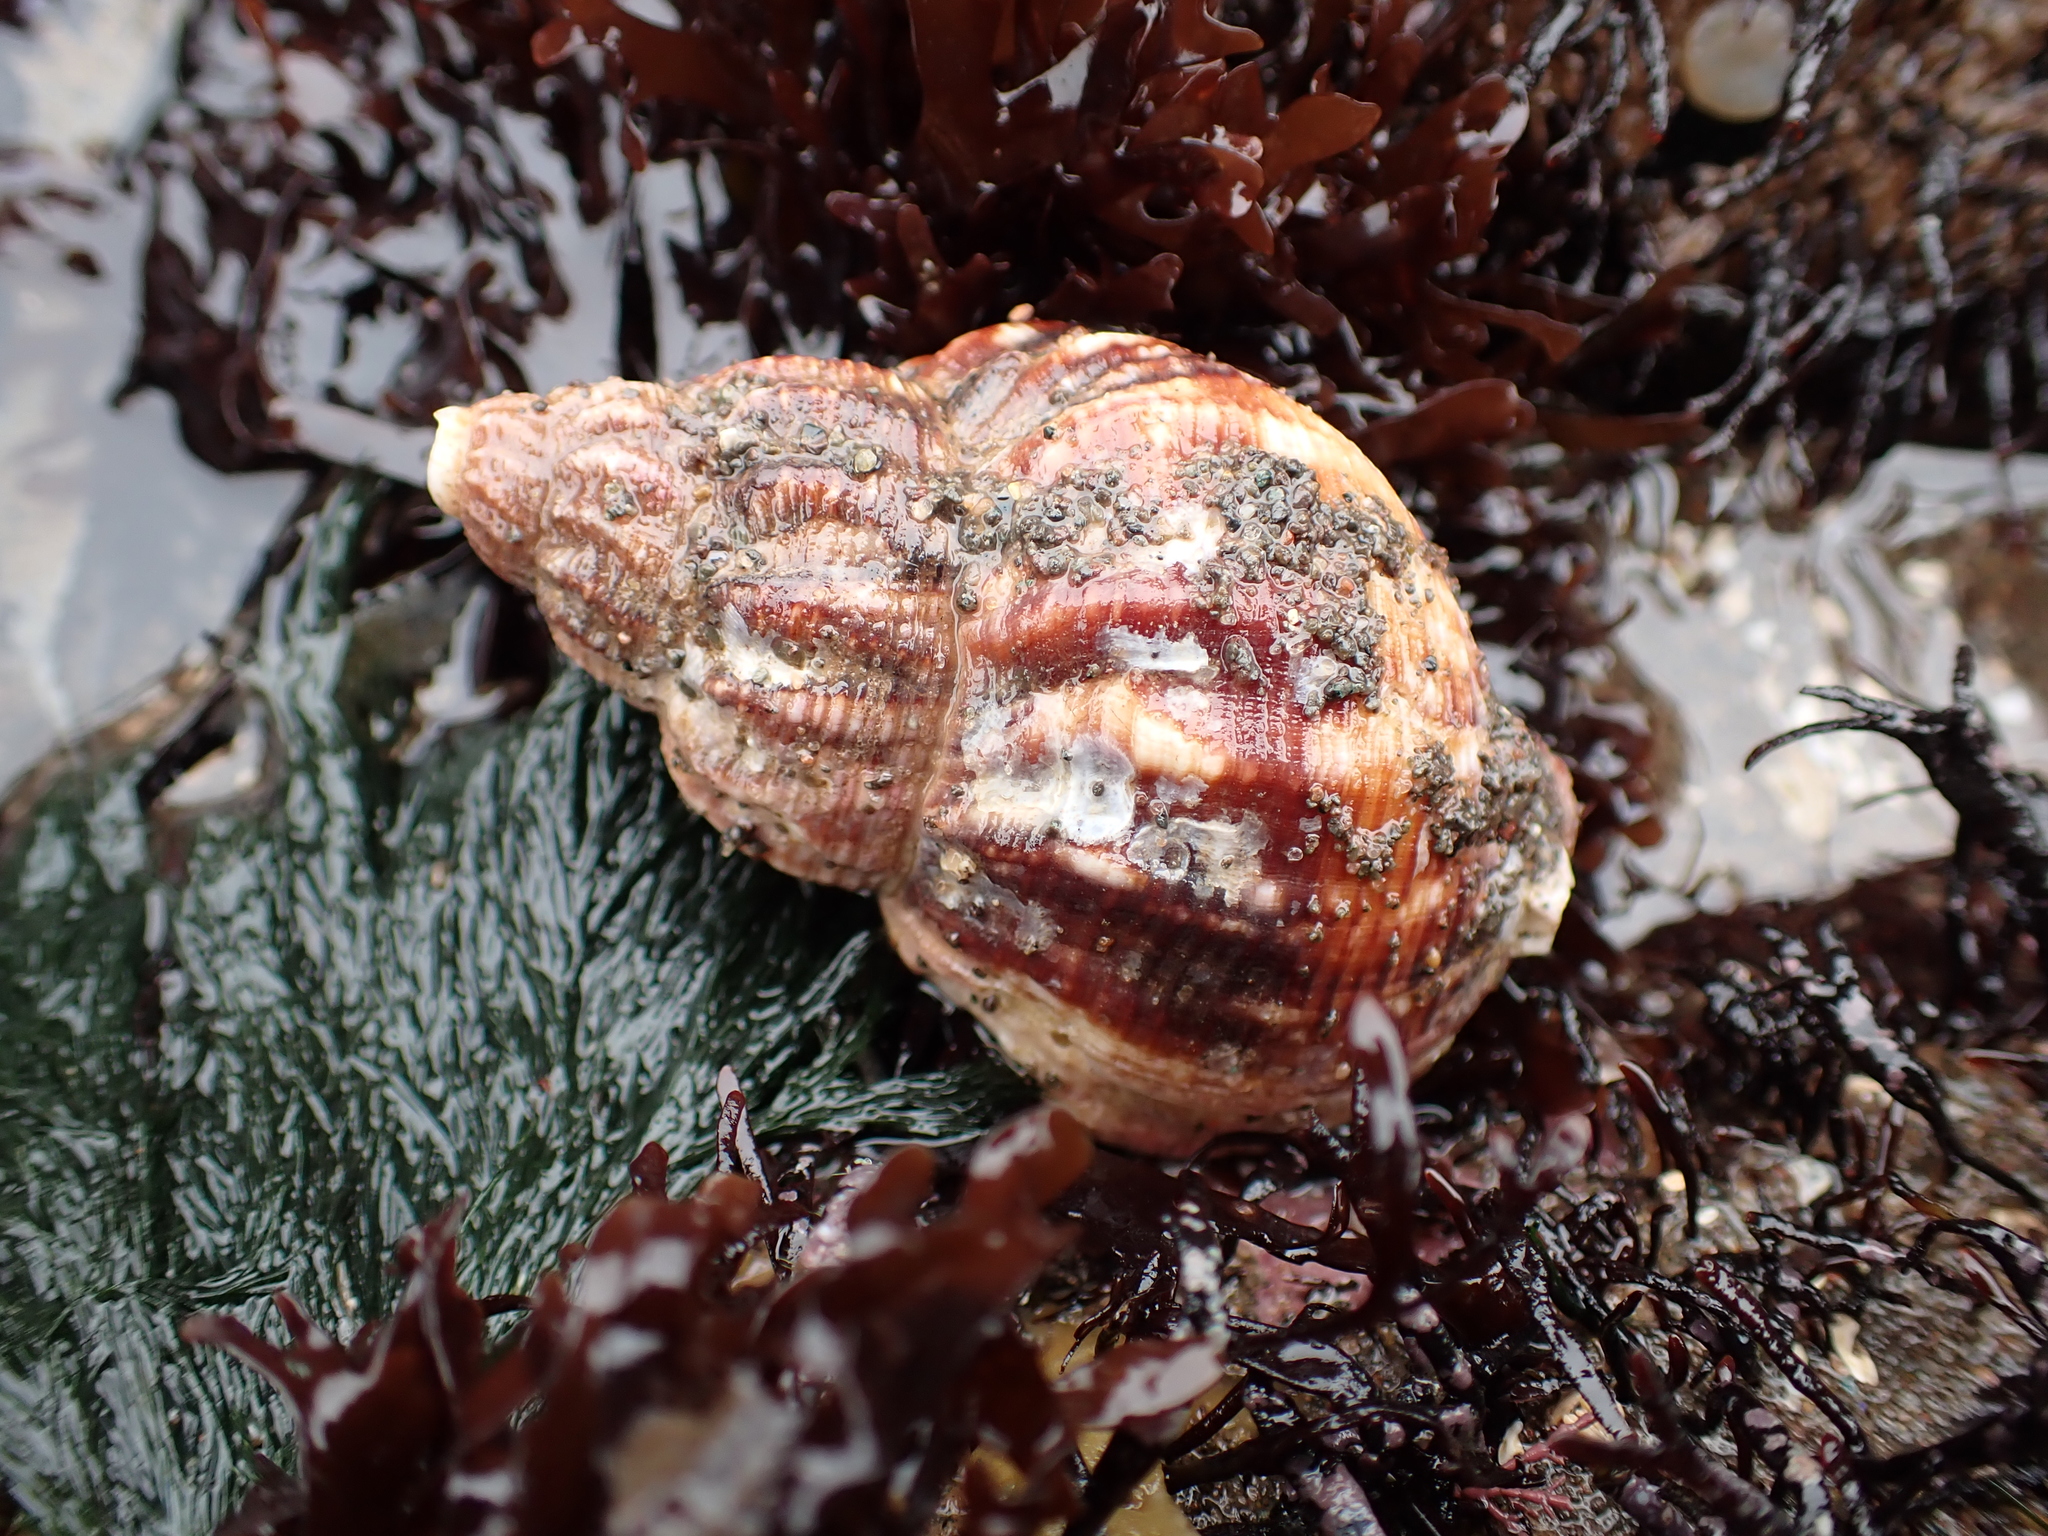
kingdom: Animalia
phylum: Mollusca
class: Gastropoda
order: Neogastropoda
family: Buccinidae
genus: Buccinum
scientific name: Buccinum undatum
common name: Common whelk
